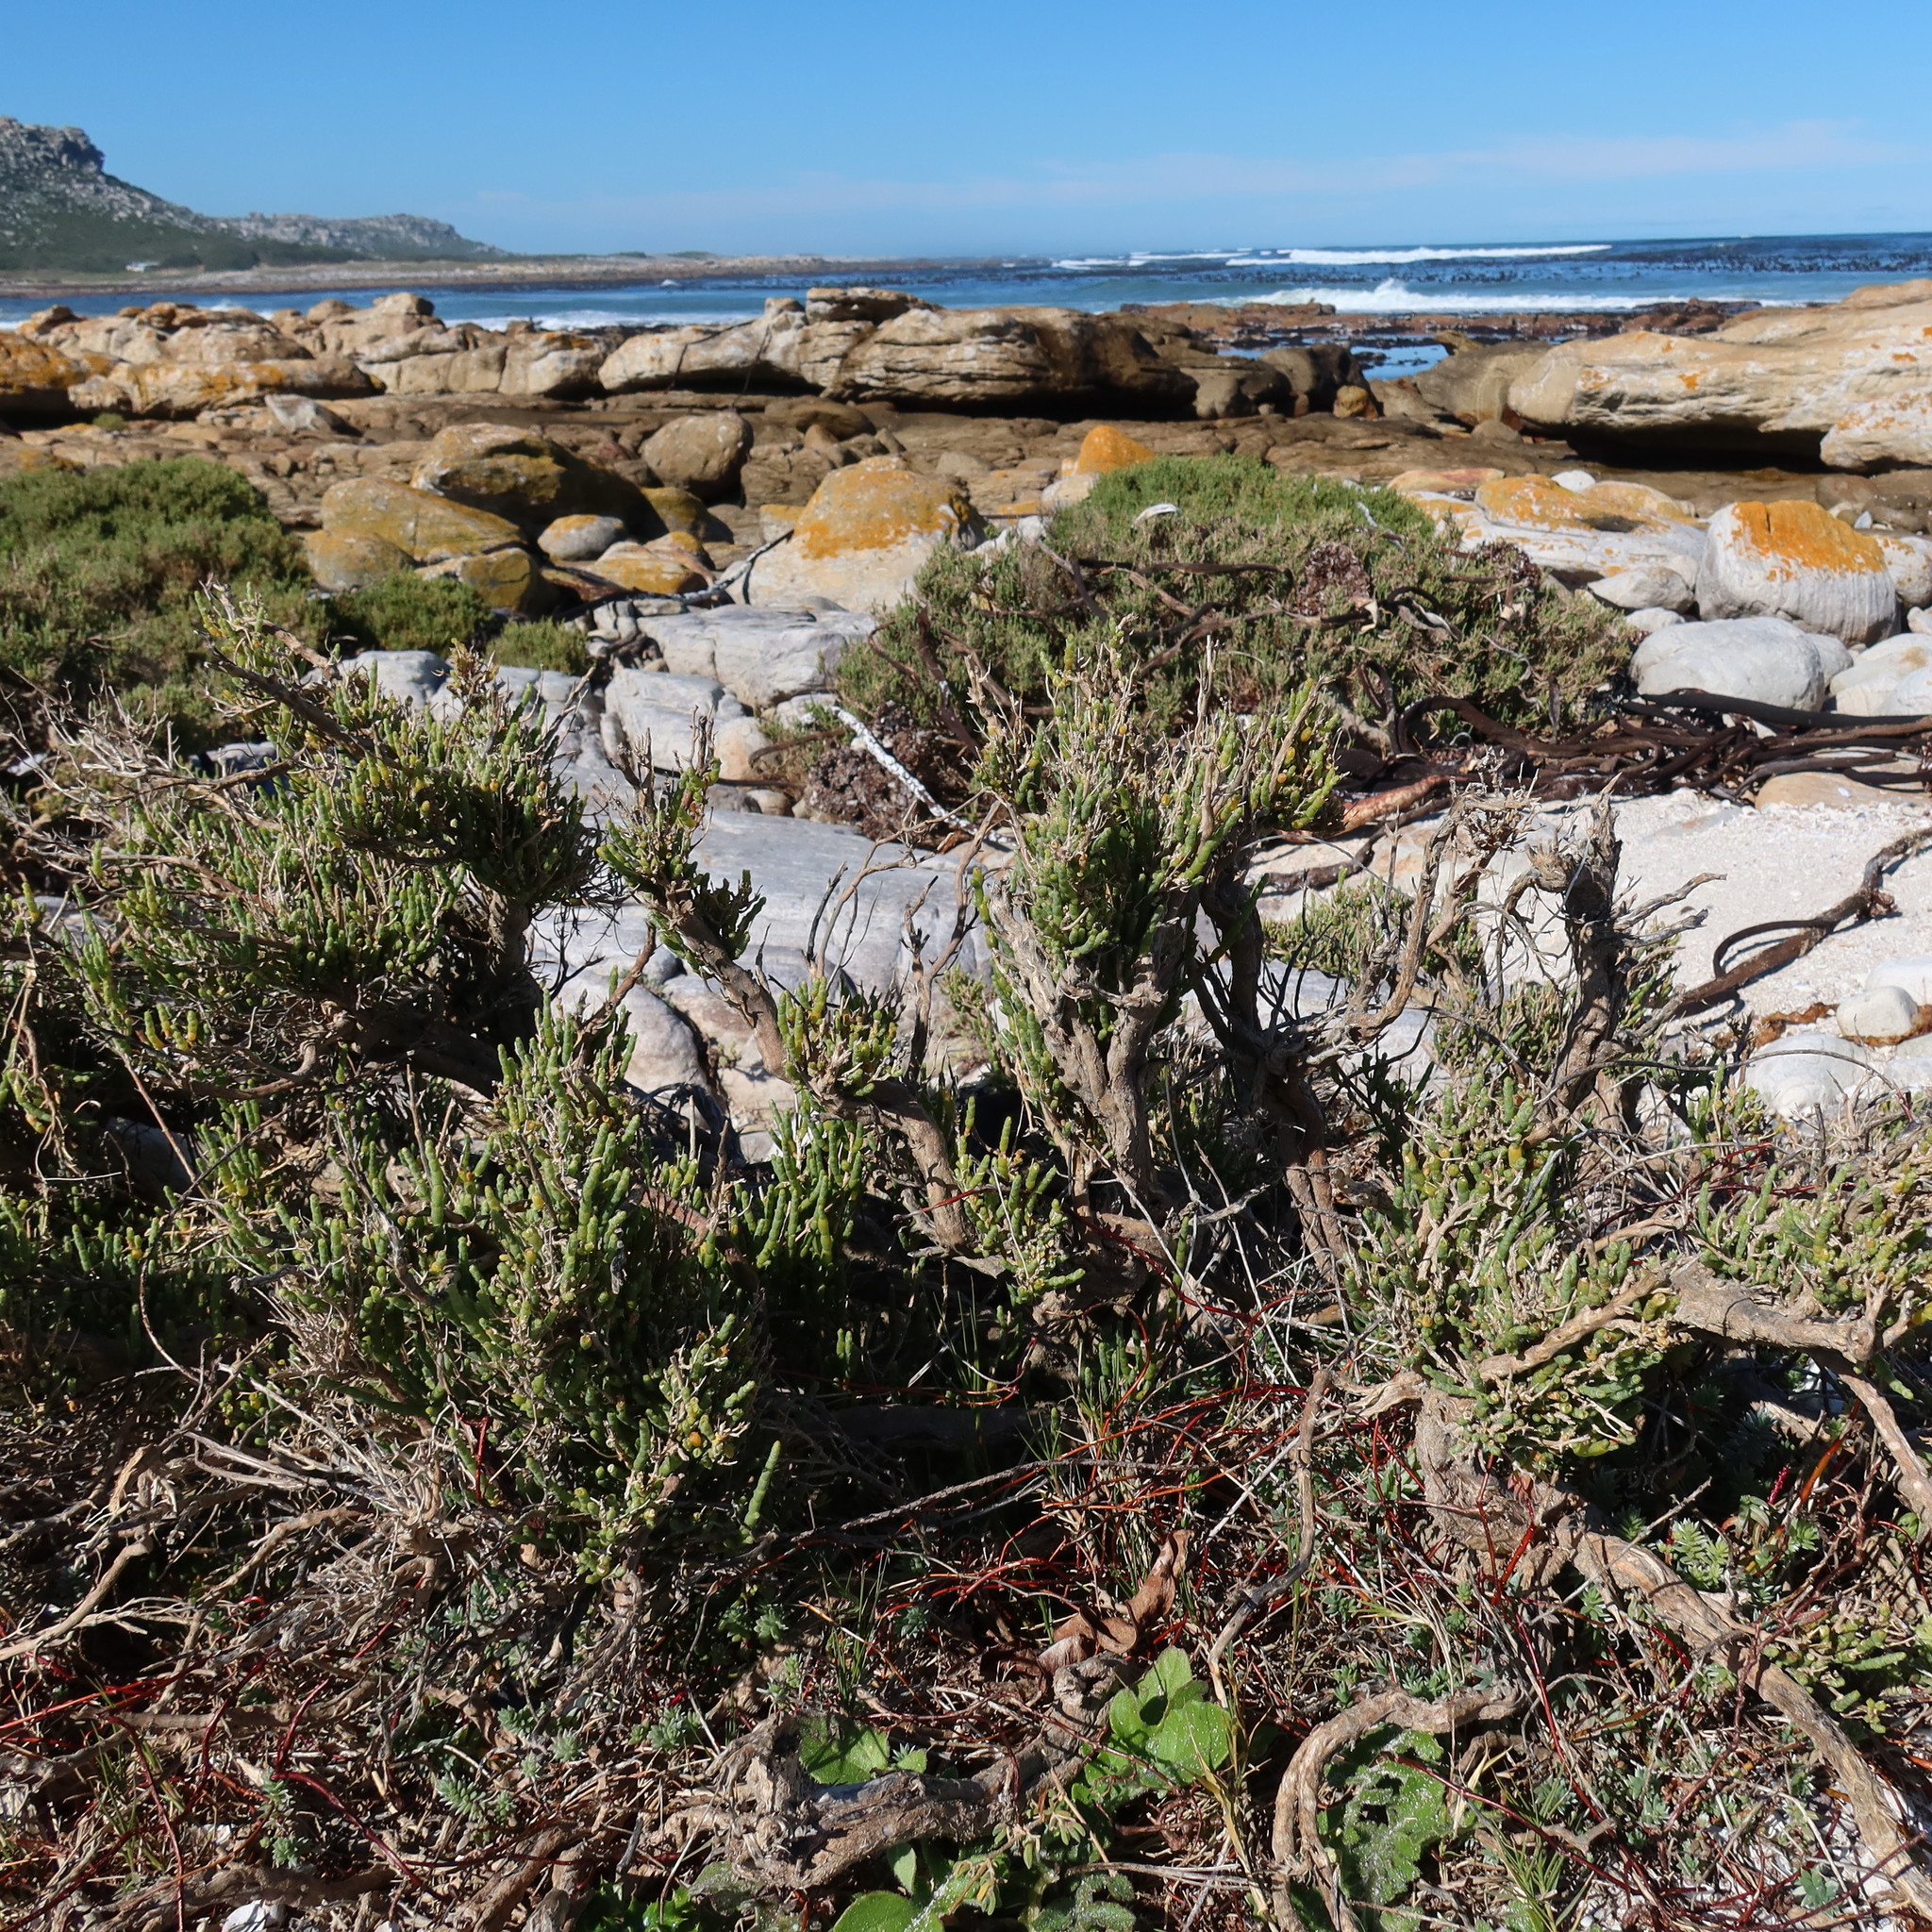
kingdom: Plantae
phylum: Tracheophyta
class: Magnoliopsida
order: Caryophyllales
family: Amaranthaceae
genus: Salicornia
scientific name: Salicornia littorea
